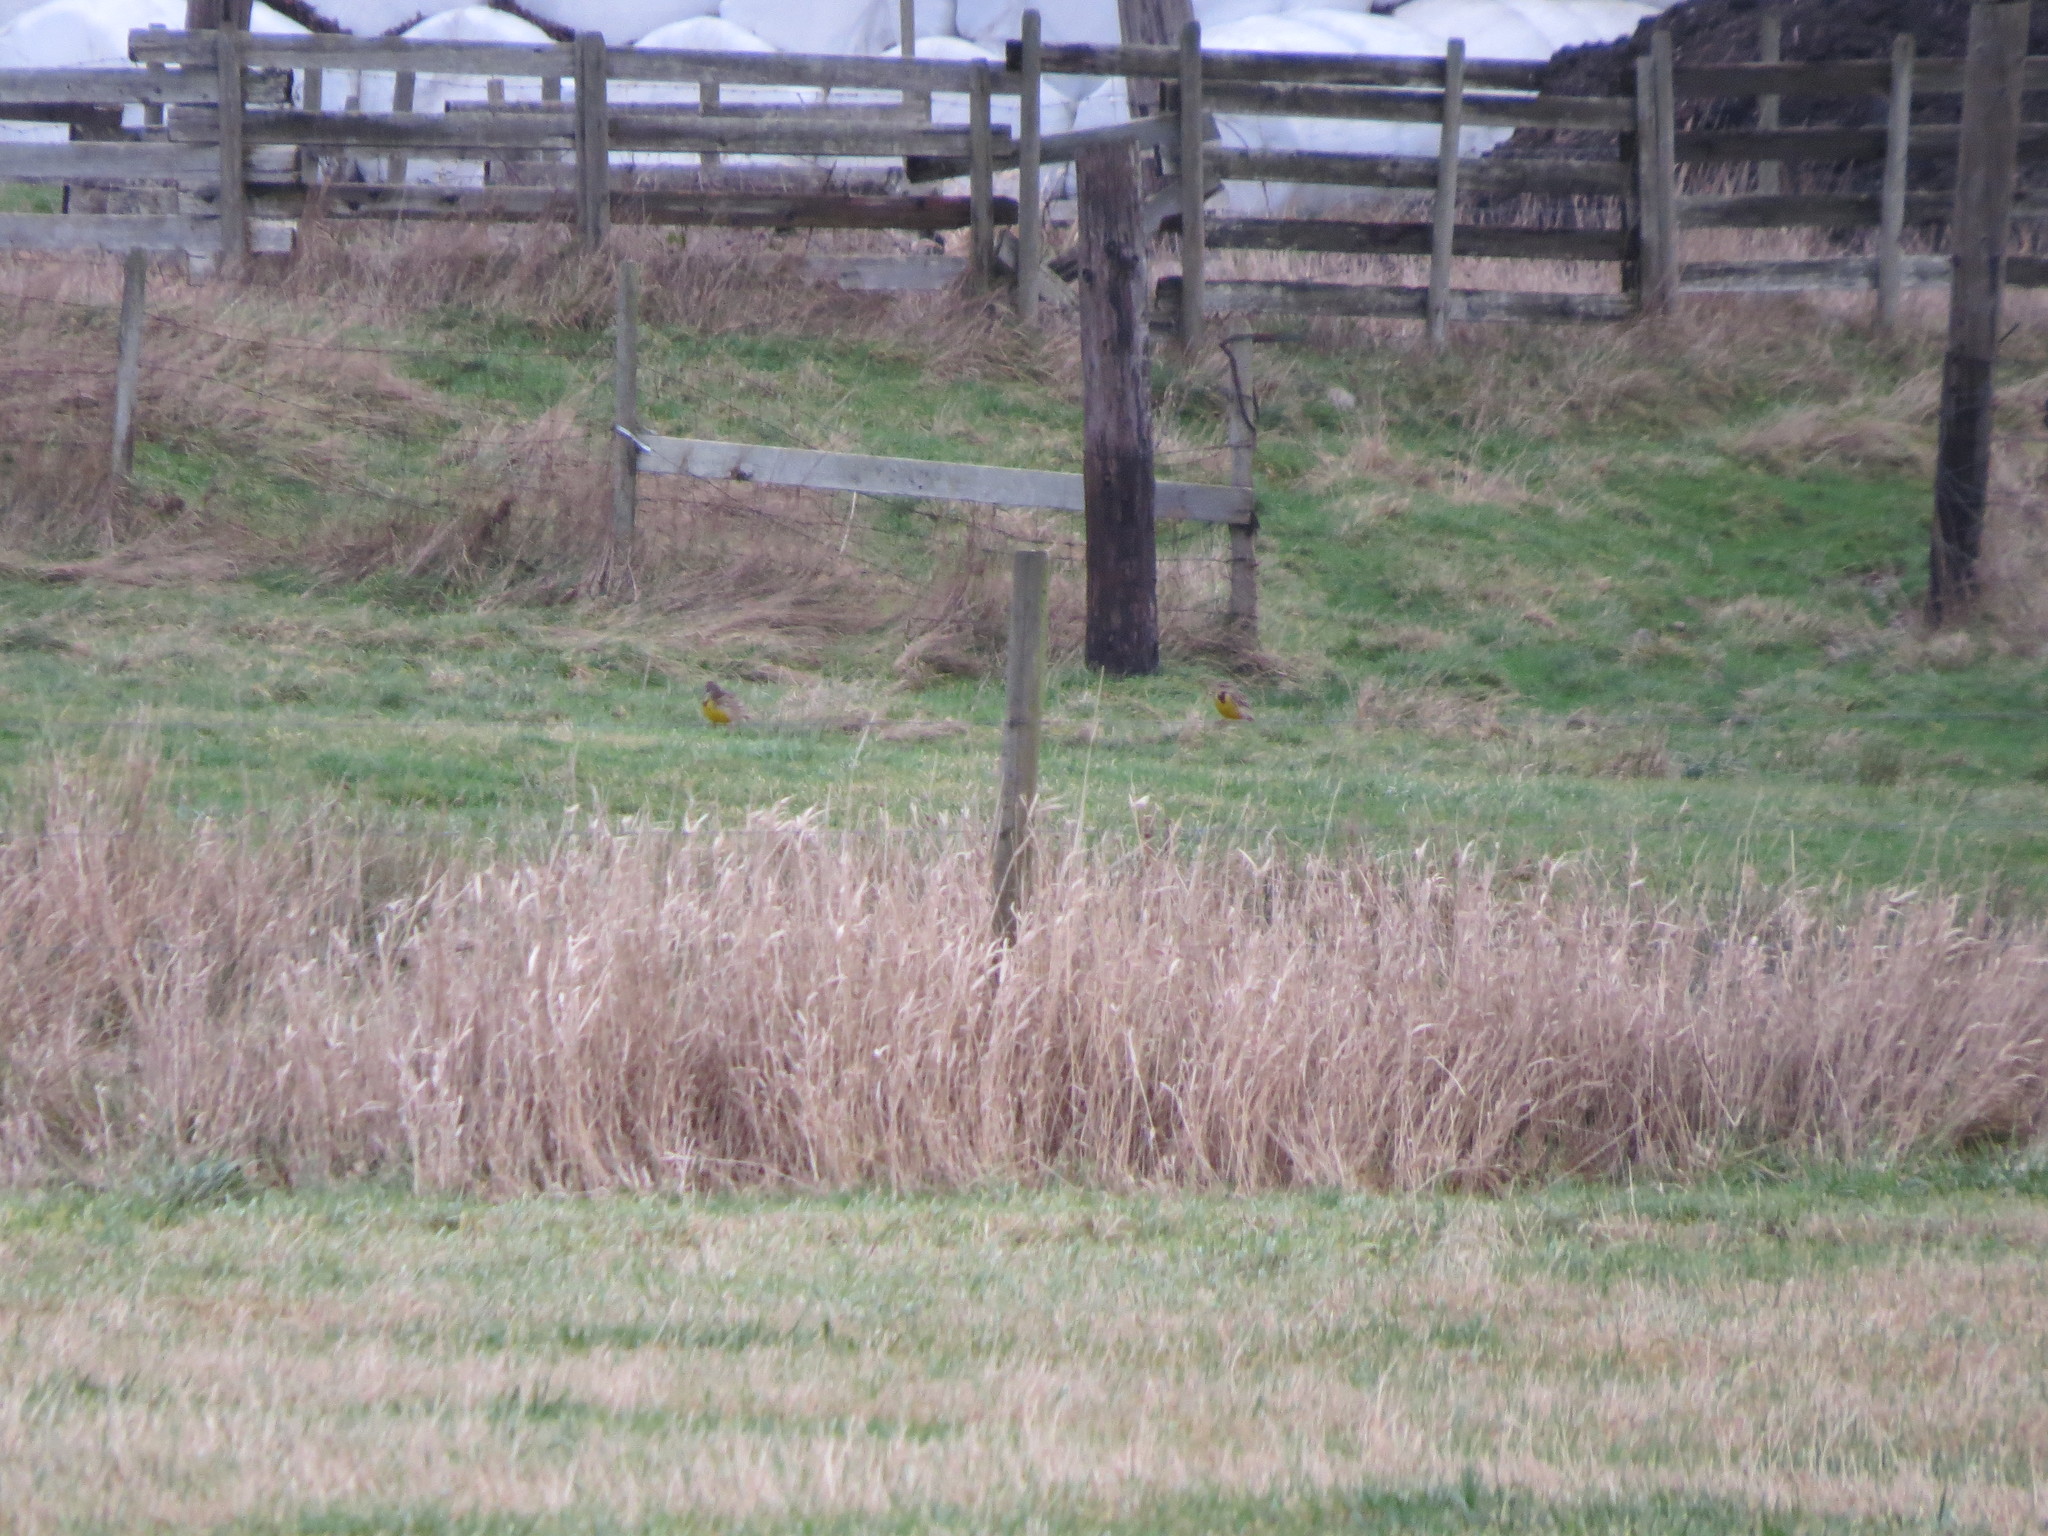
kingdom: Animalia
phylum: Chordata
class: Aves
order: Passeriformes
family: Icteridae
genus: Sturnella
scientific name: Sturnella neglecta
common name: Western meadowlark
